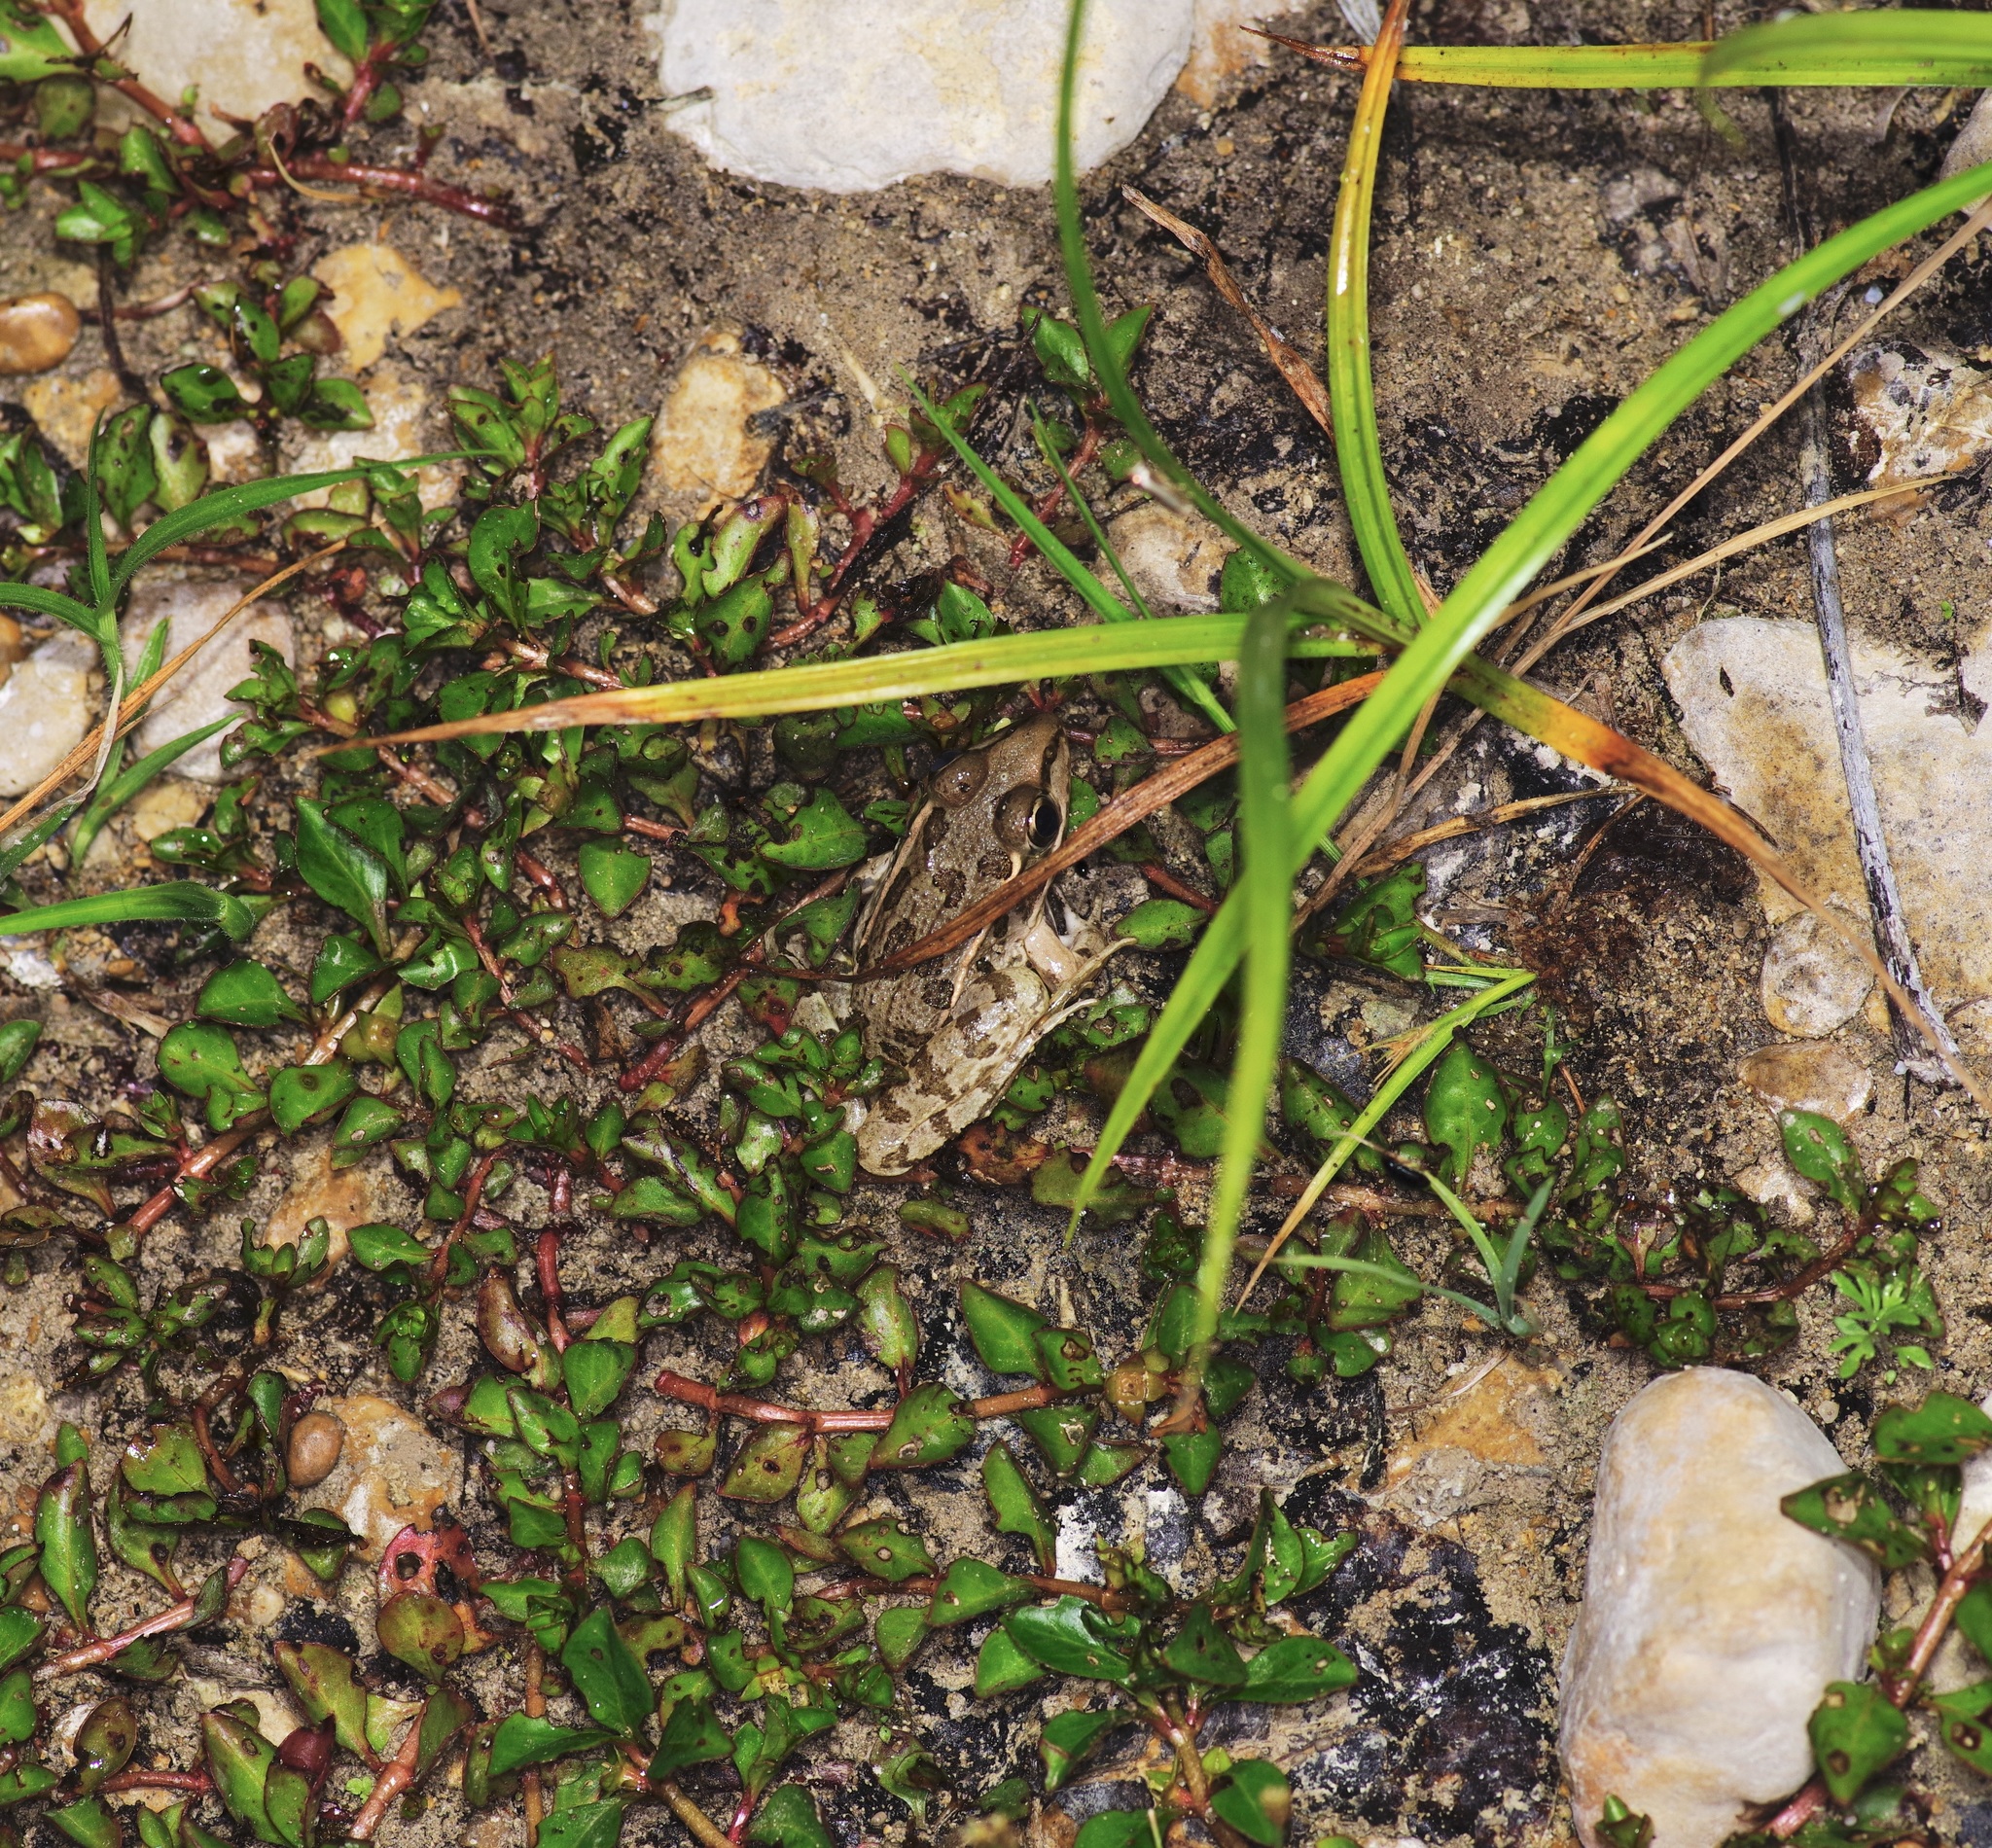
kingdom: Animalia
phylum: Chordata
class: Amphibia
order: Anura
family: Ranidae
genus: Lithobates
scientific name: Lithobates berlandieri
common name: Rio grande leopard frog
